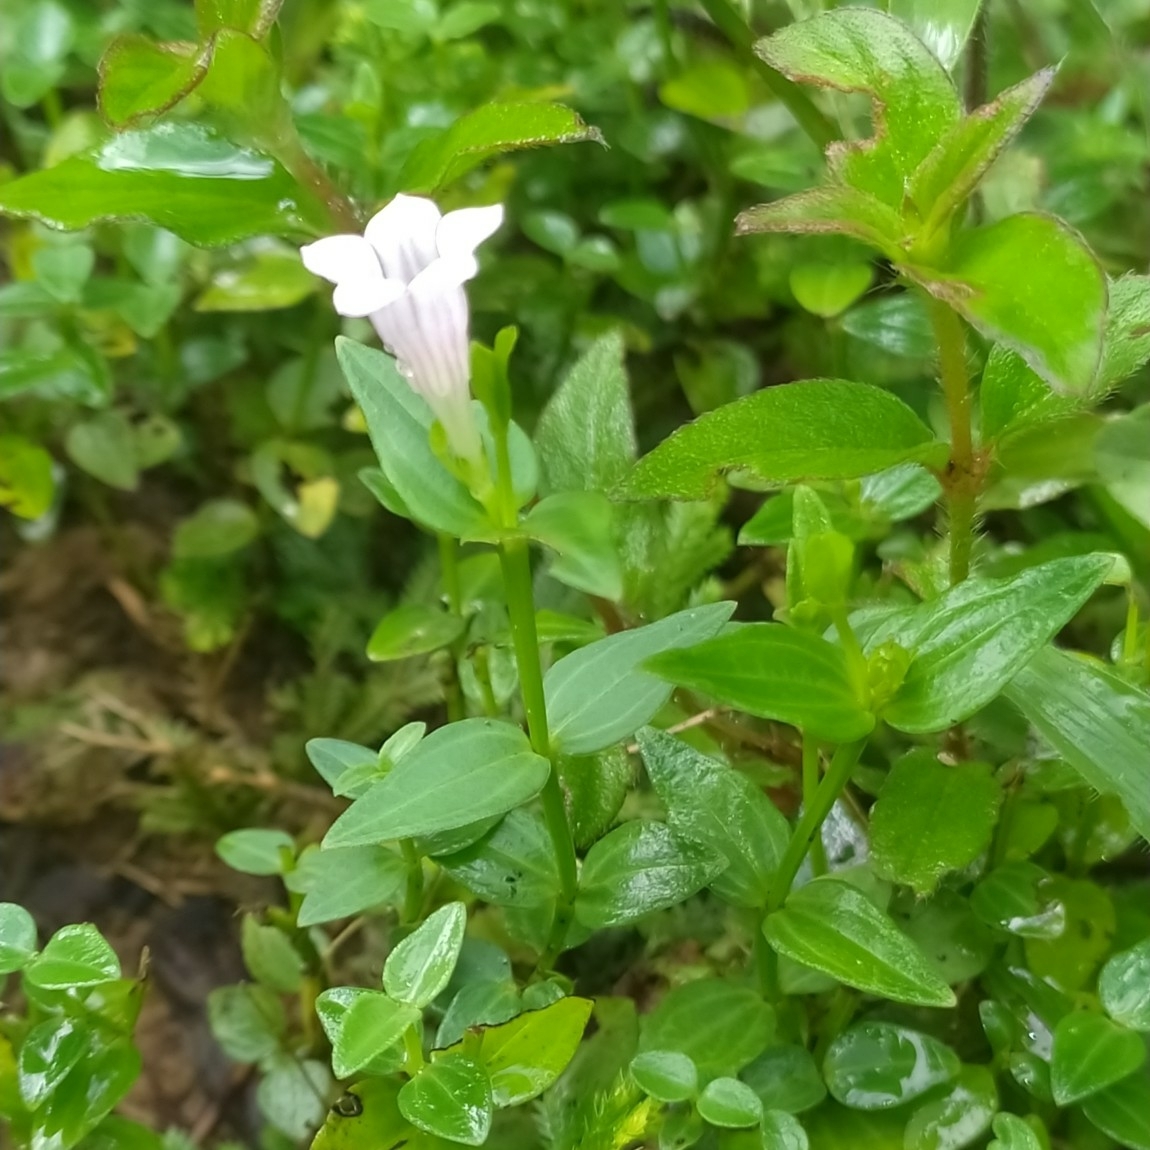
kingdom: Plantae
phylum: Tracheophyta
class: Magnoliopsida
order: Gentianales
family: Loganiaceae
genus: Spigelia
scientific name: Spigelia guianensis
